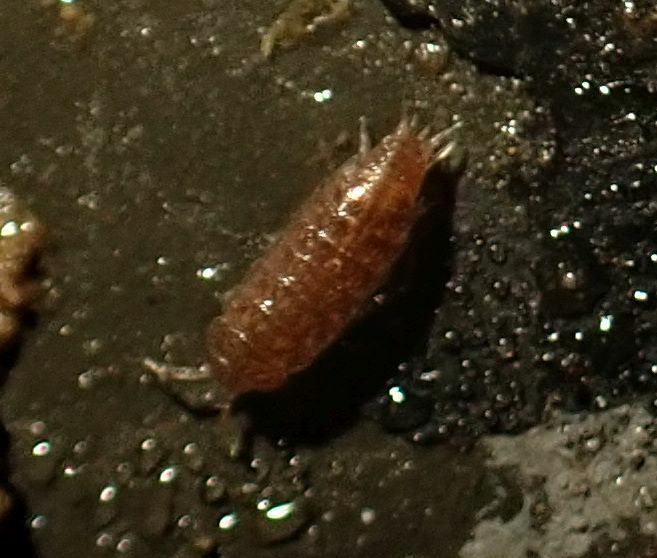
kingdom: Animalia
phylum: Arthropoda
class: Malacostraca
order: Isopoda
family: Trichoniscidae
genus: Trichoniscus
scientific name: Trichoniscus
